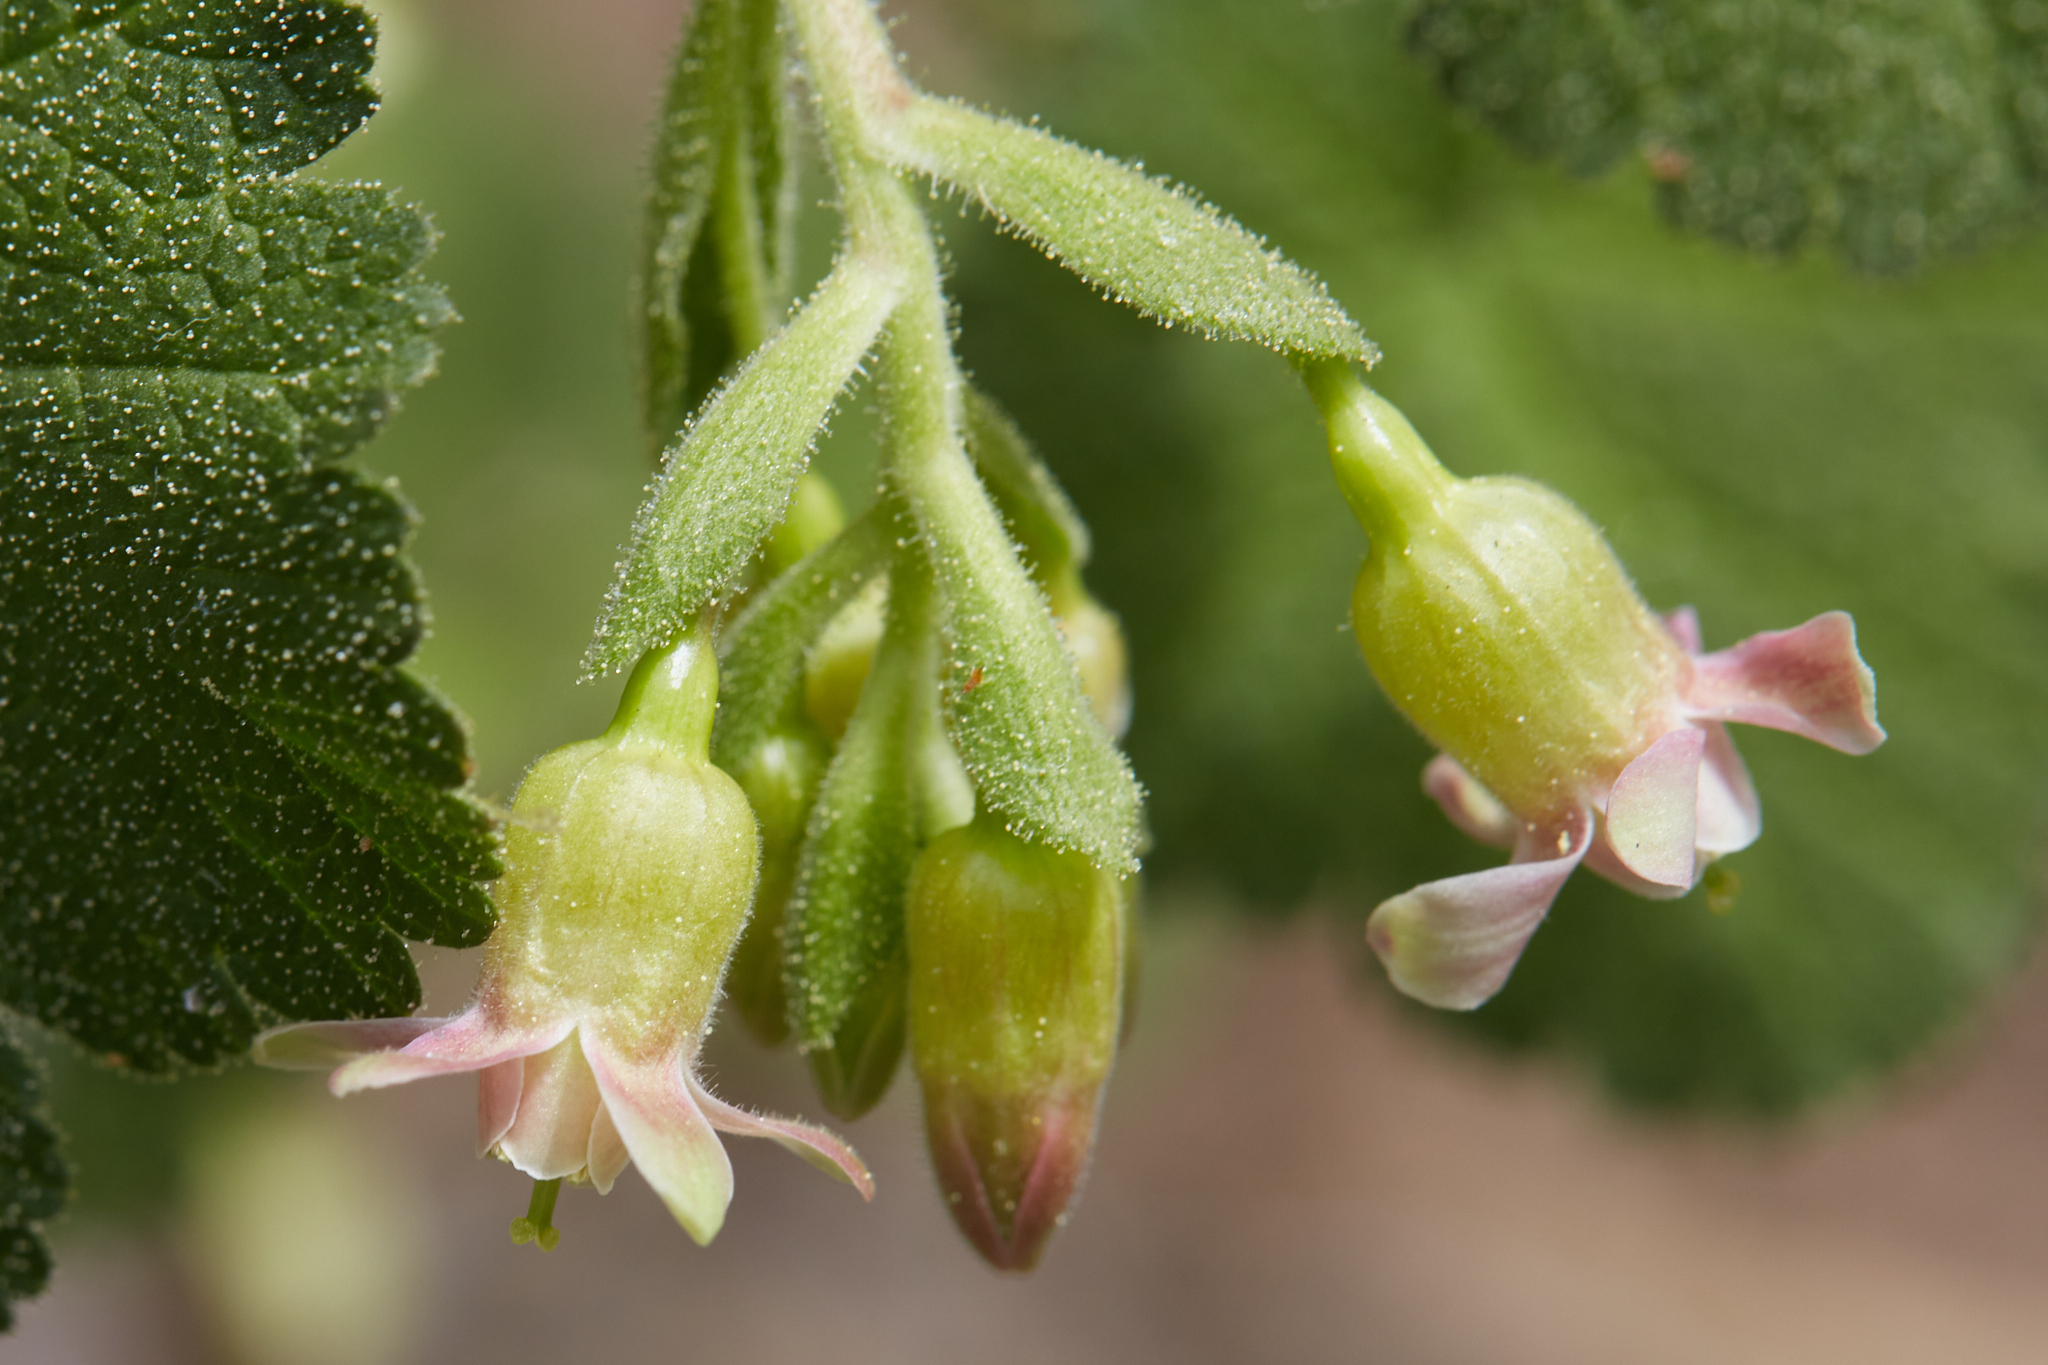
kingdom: Plantae
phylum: Tracheophyta
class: Magnoliopsida
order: Saxifragales
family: Grossulariaceae
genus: Ribes
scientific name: Ribes viscosissimum
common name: Sticky currant
